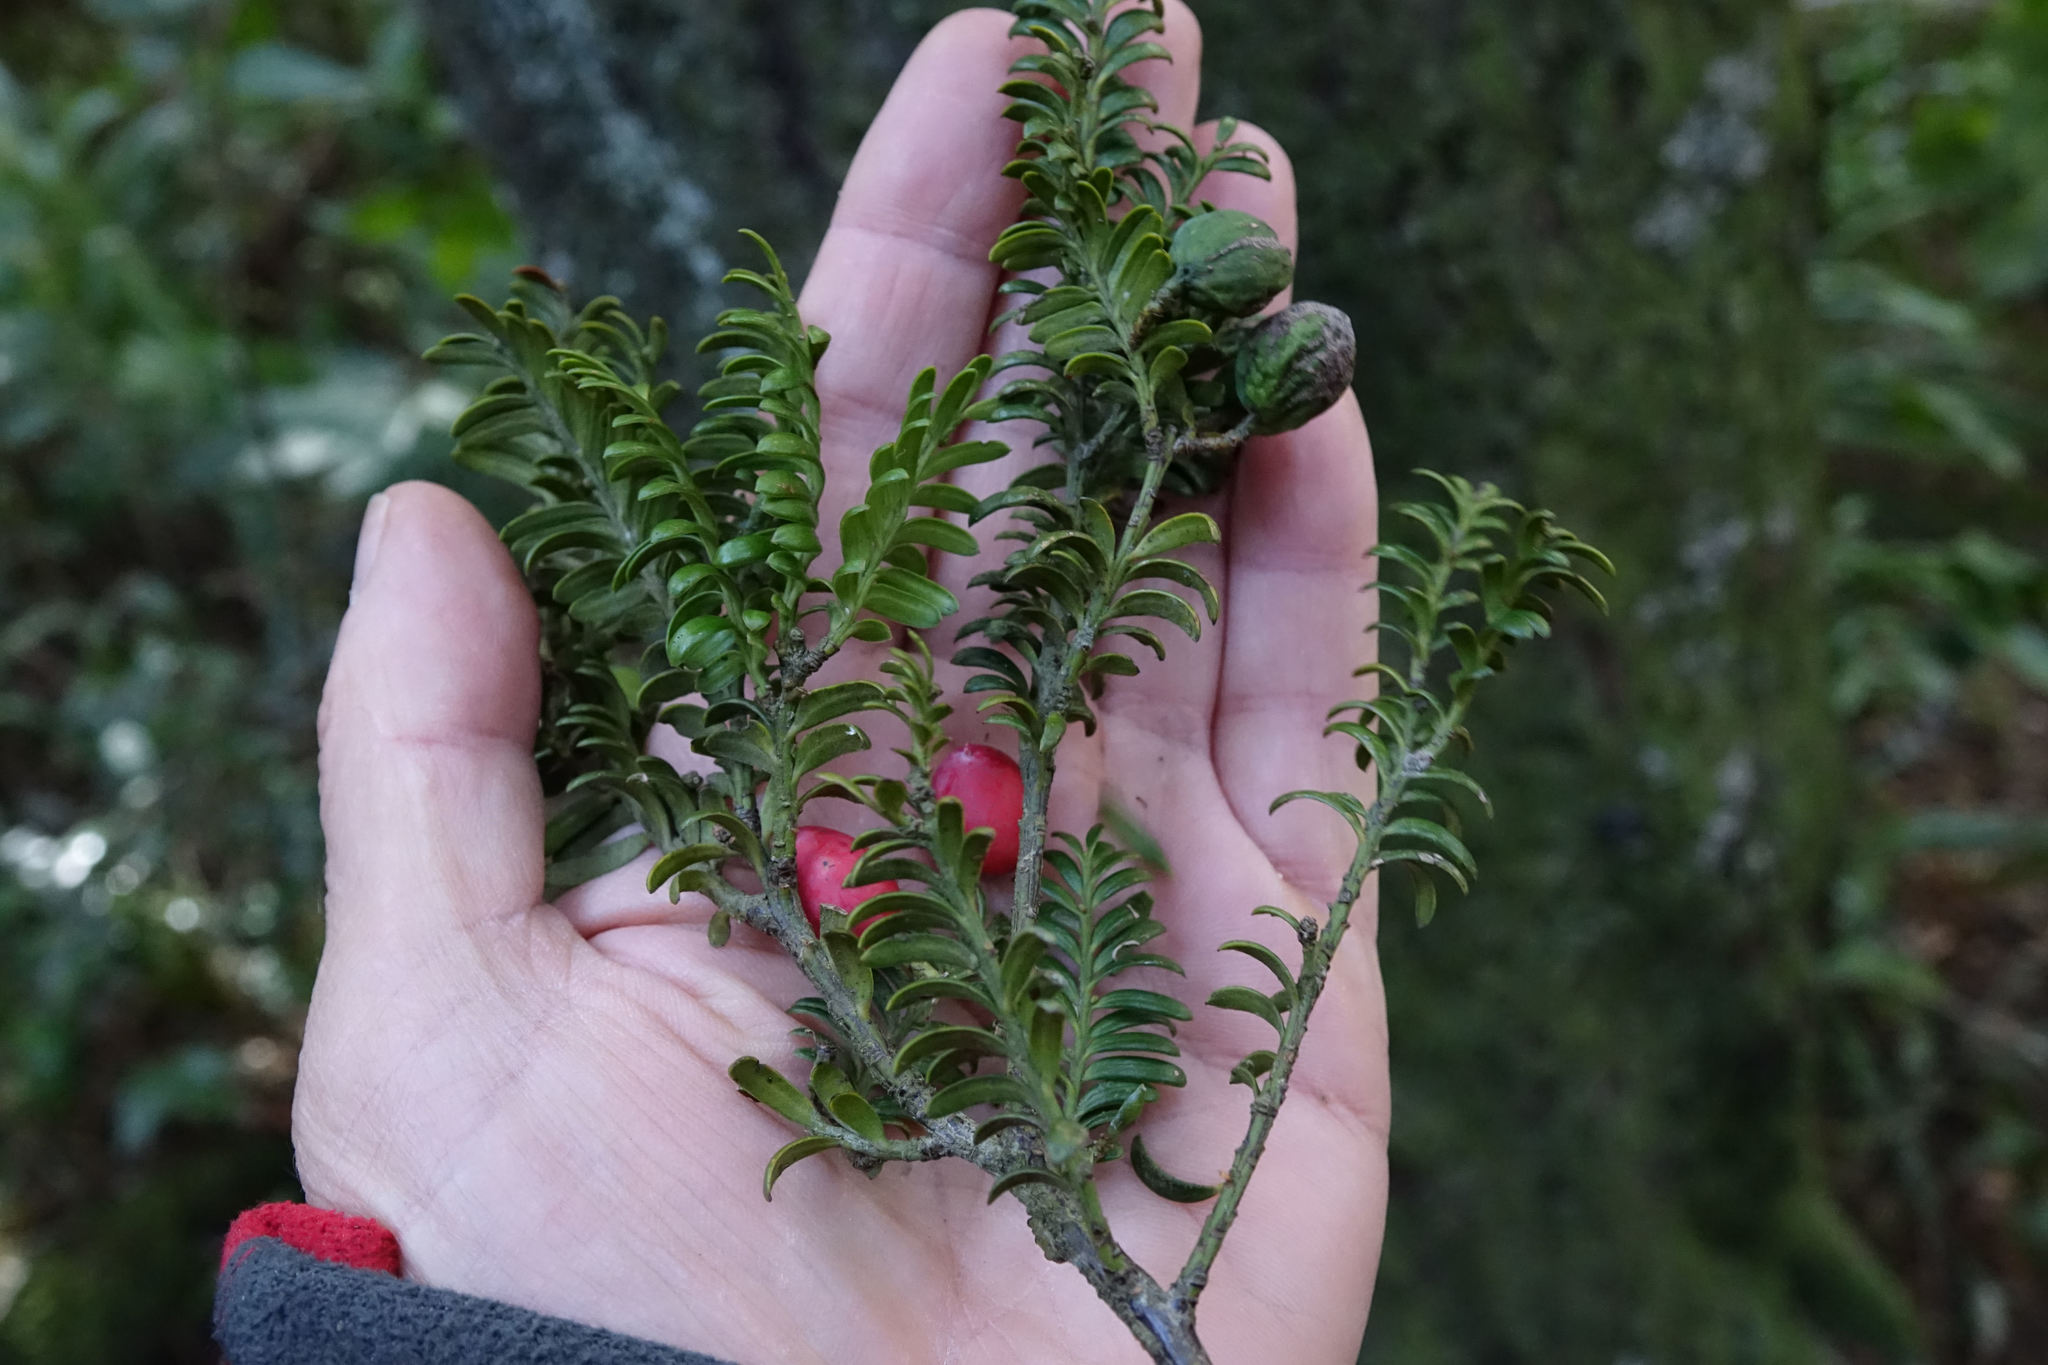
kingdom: Plantae
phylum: Tracheophyta
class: Pinopsida
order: Pinales
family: Podocarpaceae
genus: Prumnopitys
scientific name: Prumnopitys ferruginea
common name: Brown pine
